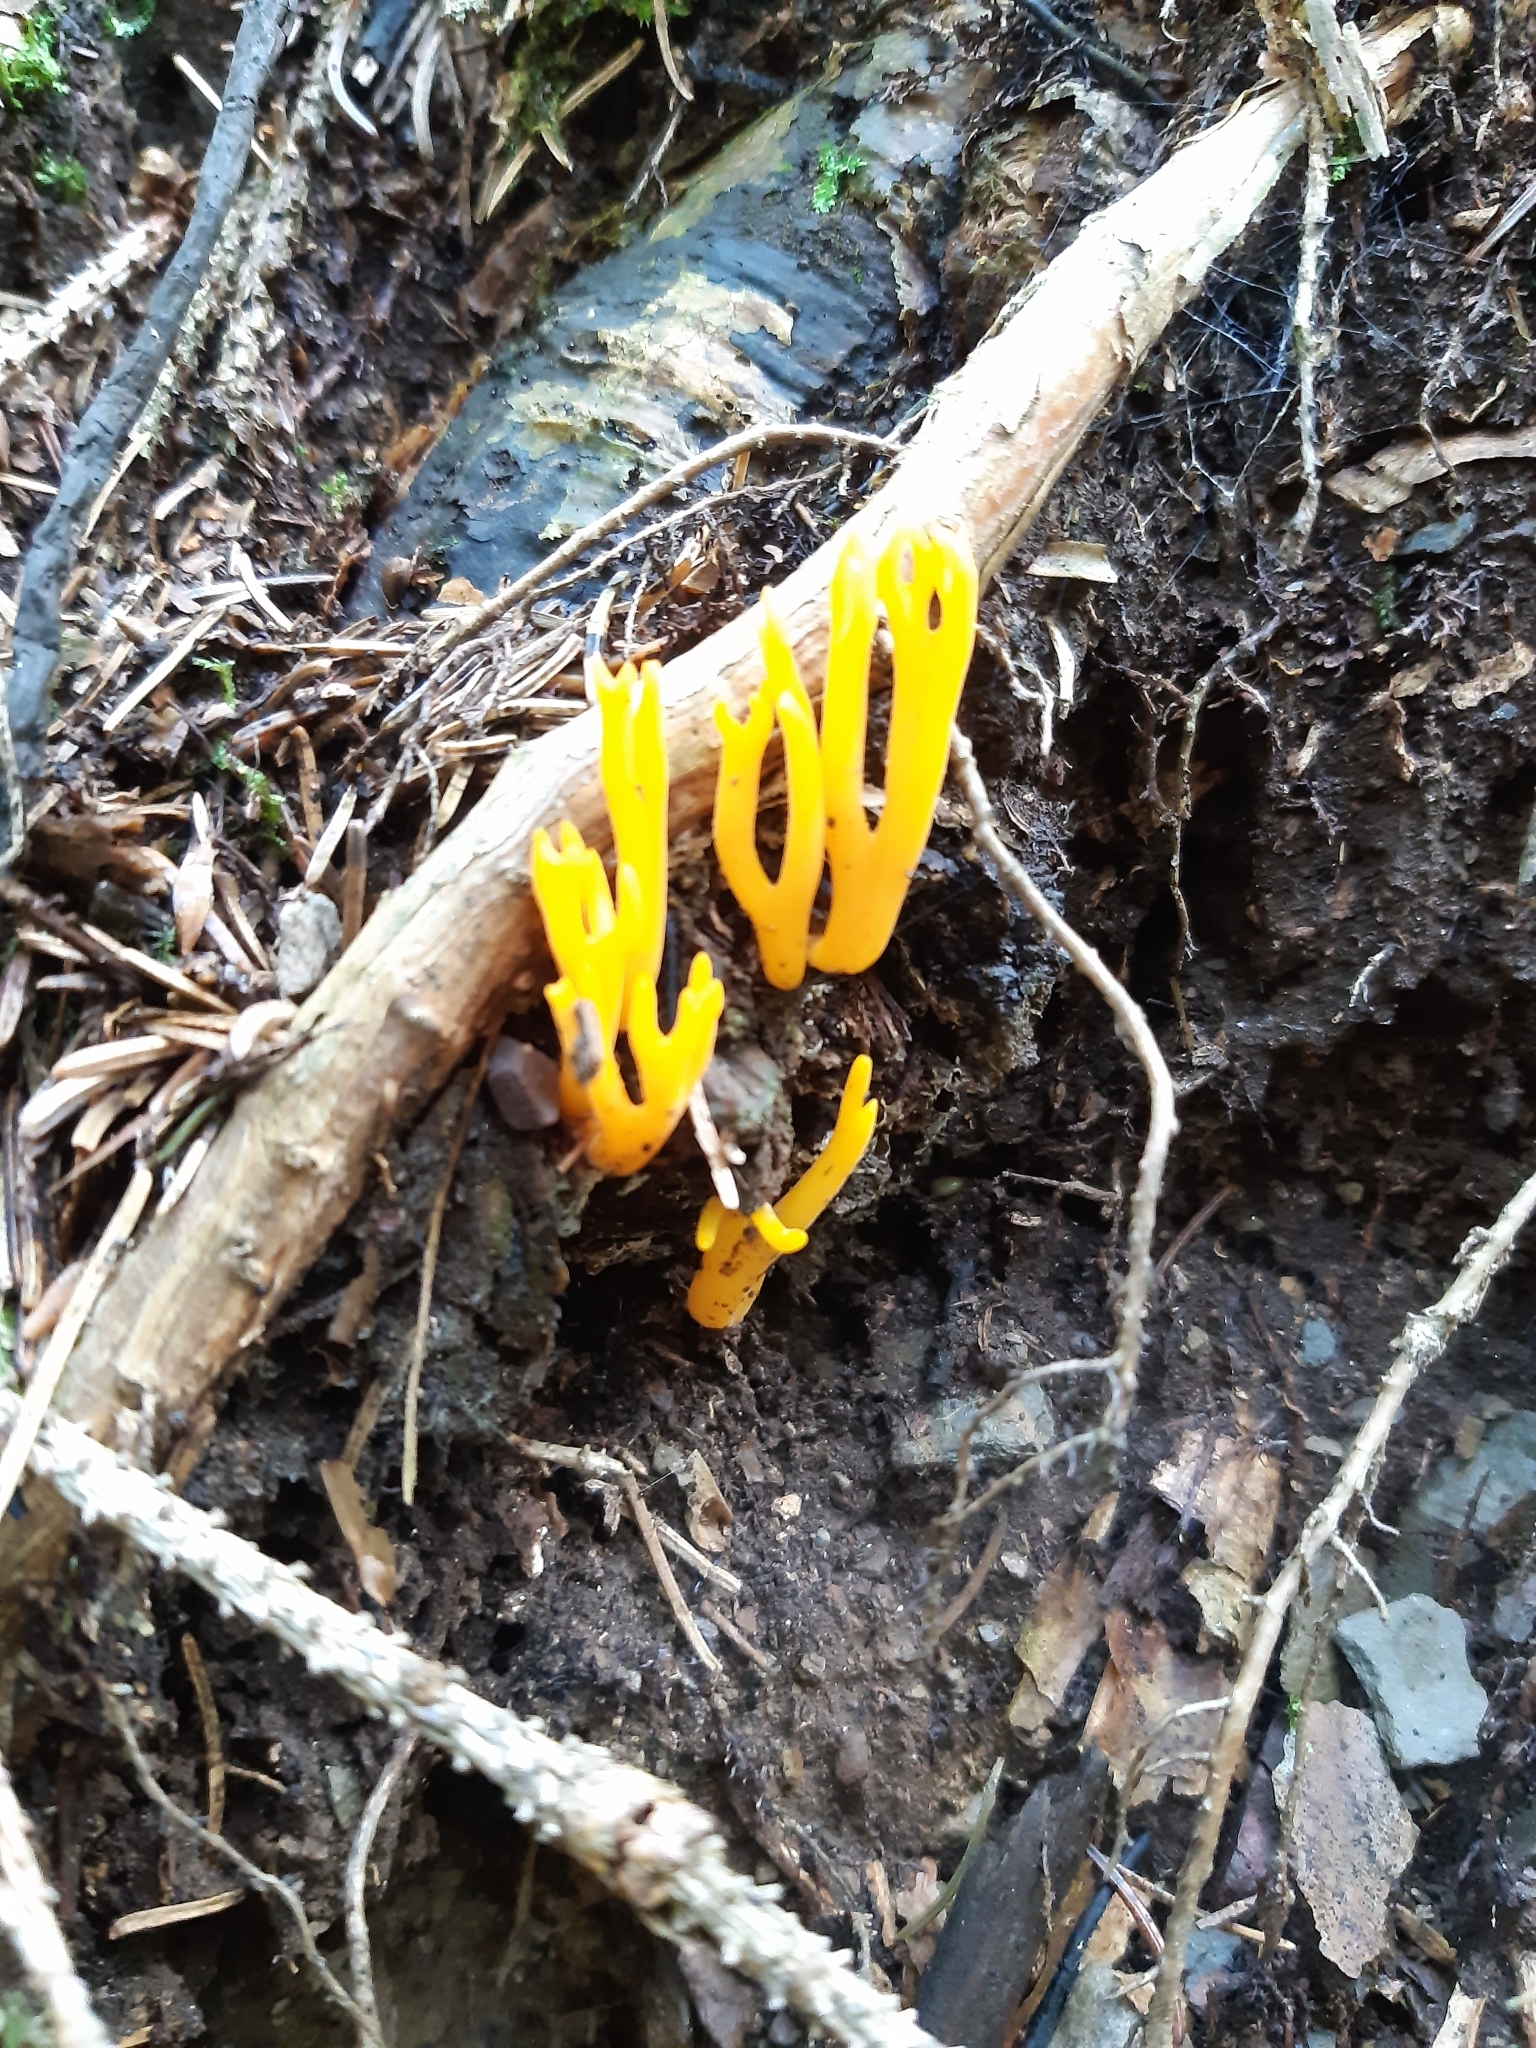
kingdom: Fungi
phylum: Basidiomycota
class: Dacrymycetes
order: Dacrymycetales
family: Dacrymycetaceae
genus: Calocera
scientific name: Calocera viscosa
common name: Yellow stagshorn
